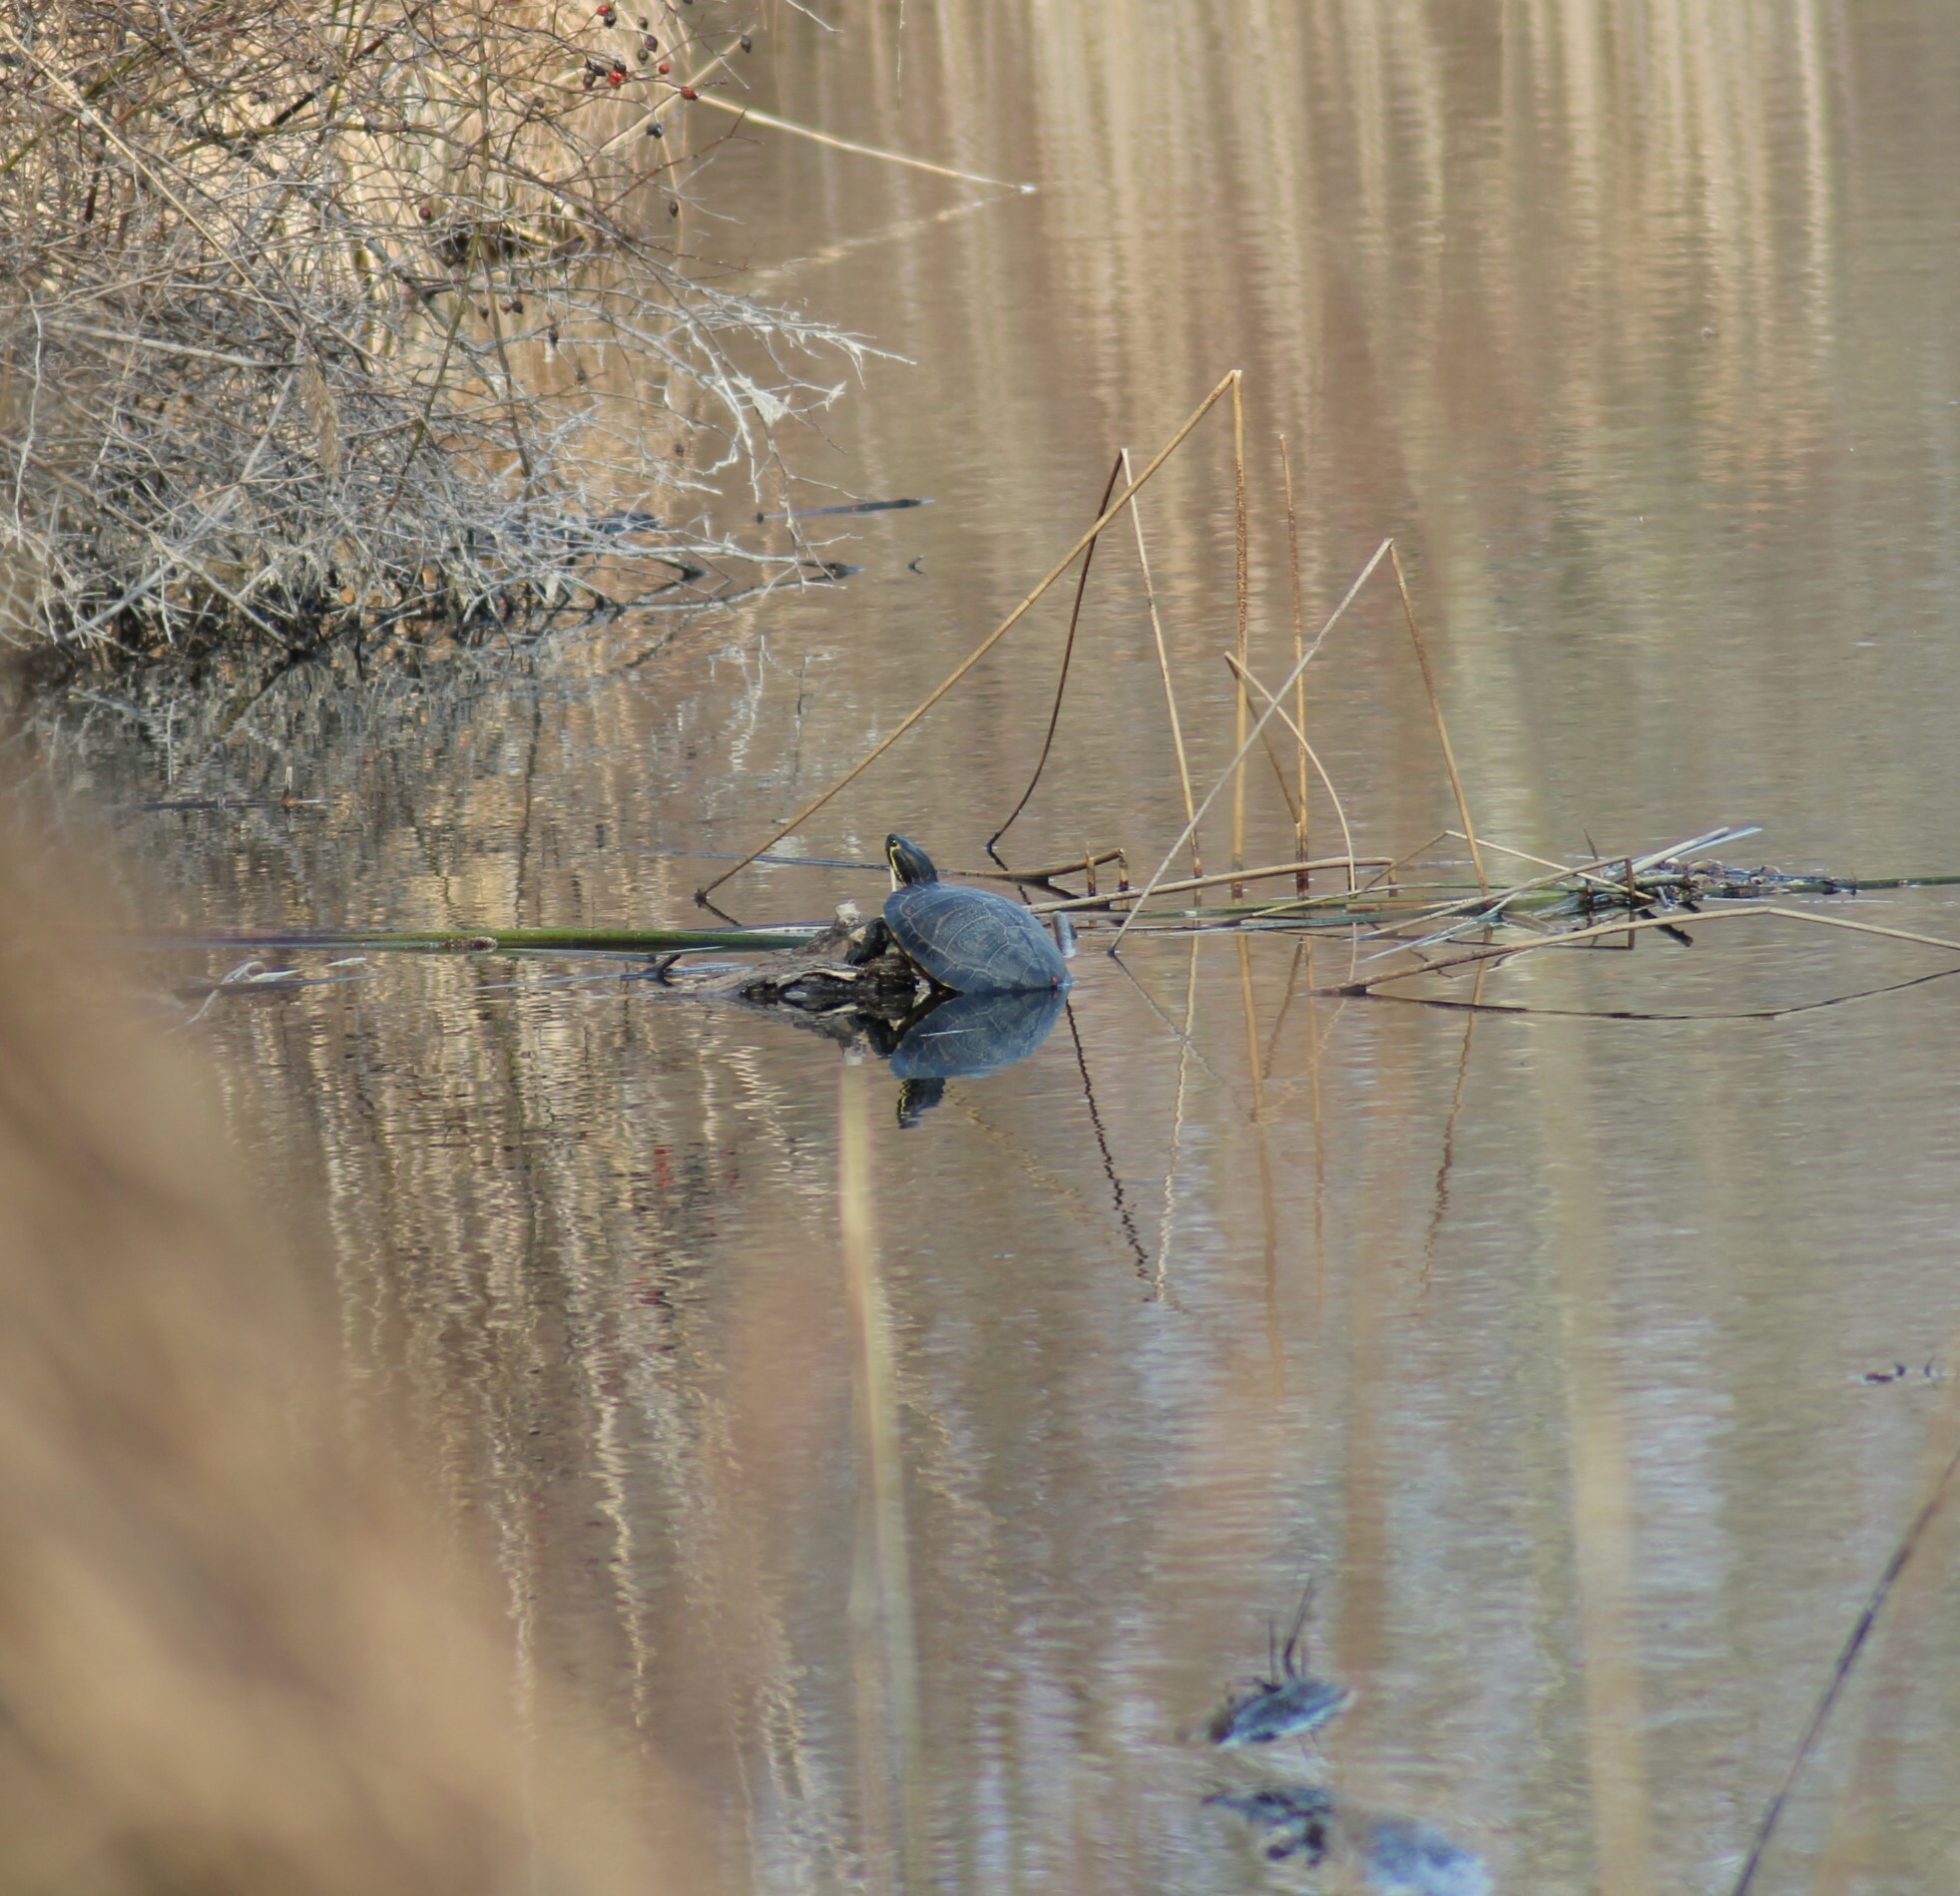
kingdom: Animalia
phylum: Chordata
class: Testudines
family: Emydidae
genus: Trachemys
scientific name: Trachemys scripta
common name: Slider
